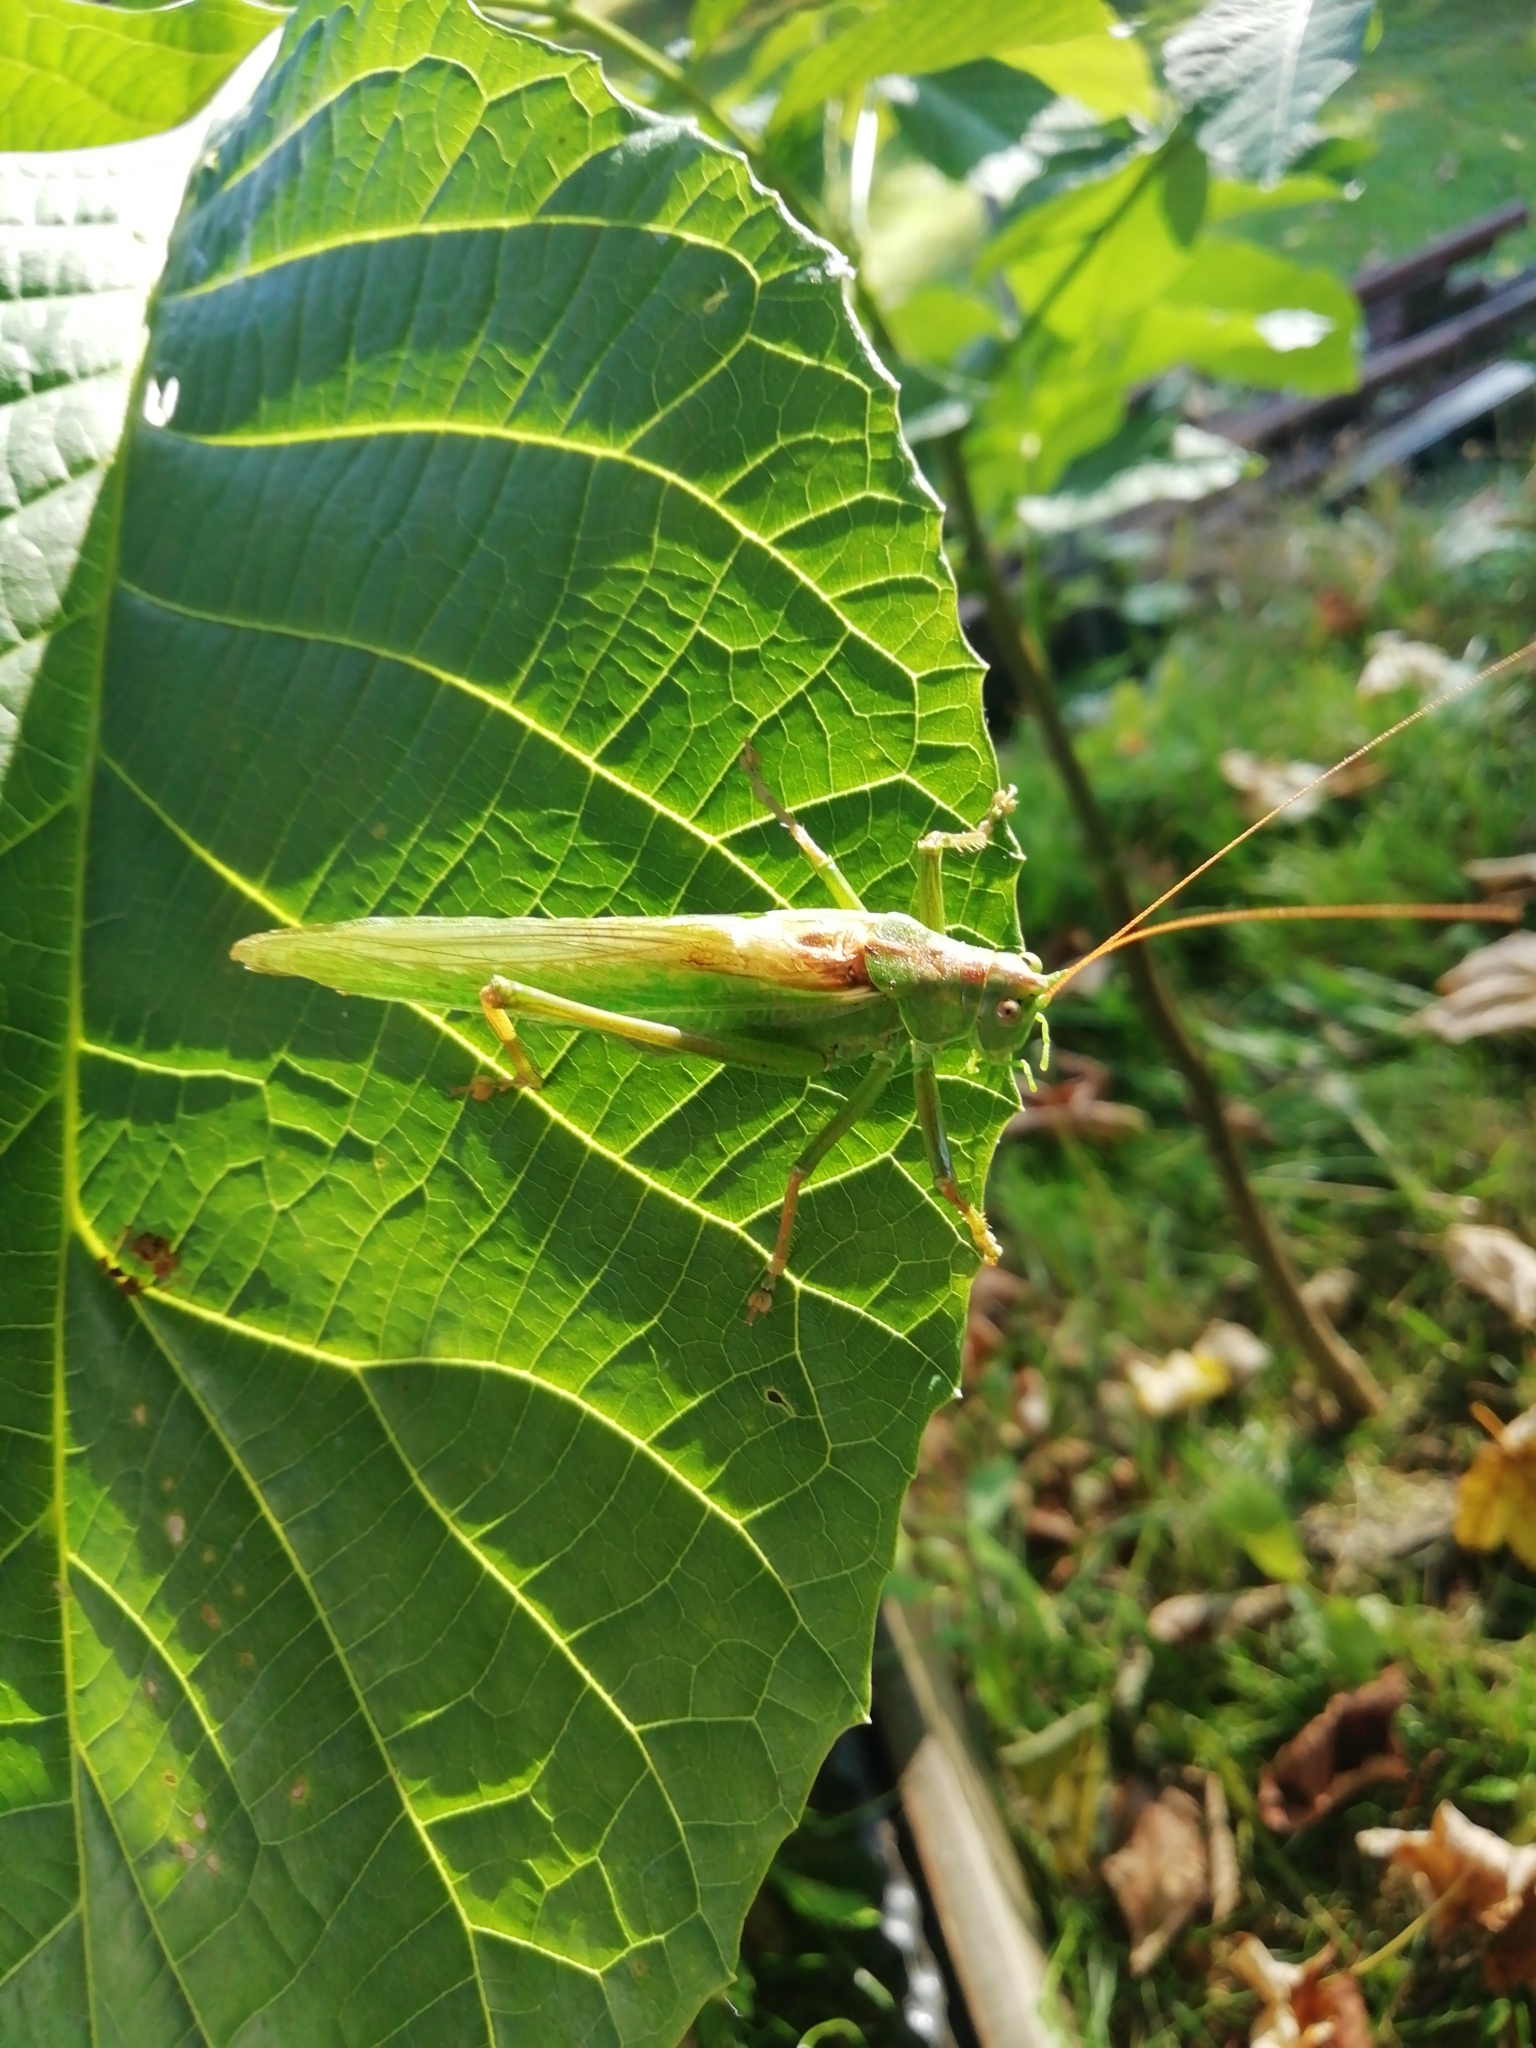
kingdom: Animalia
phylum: Arthropoda
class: Insecta
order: Orthoptera
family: Tettigoniidae
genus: Tettigonia
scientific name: Tettigonia viridissima
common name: Great green bush-cricket
